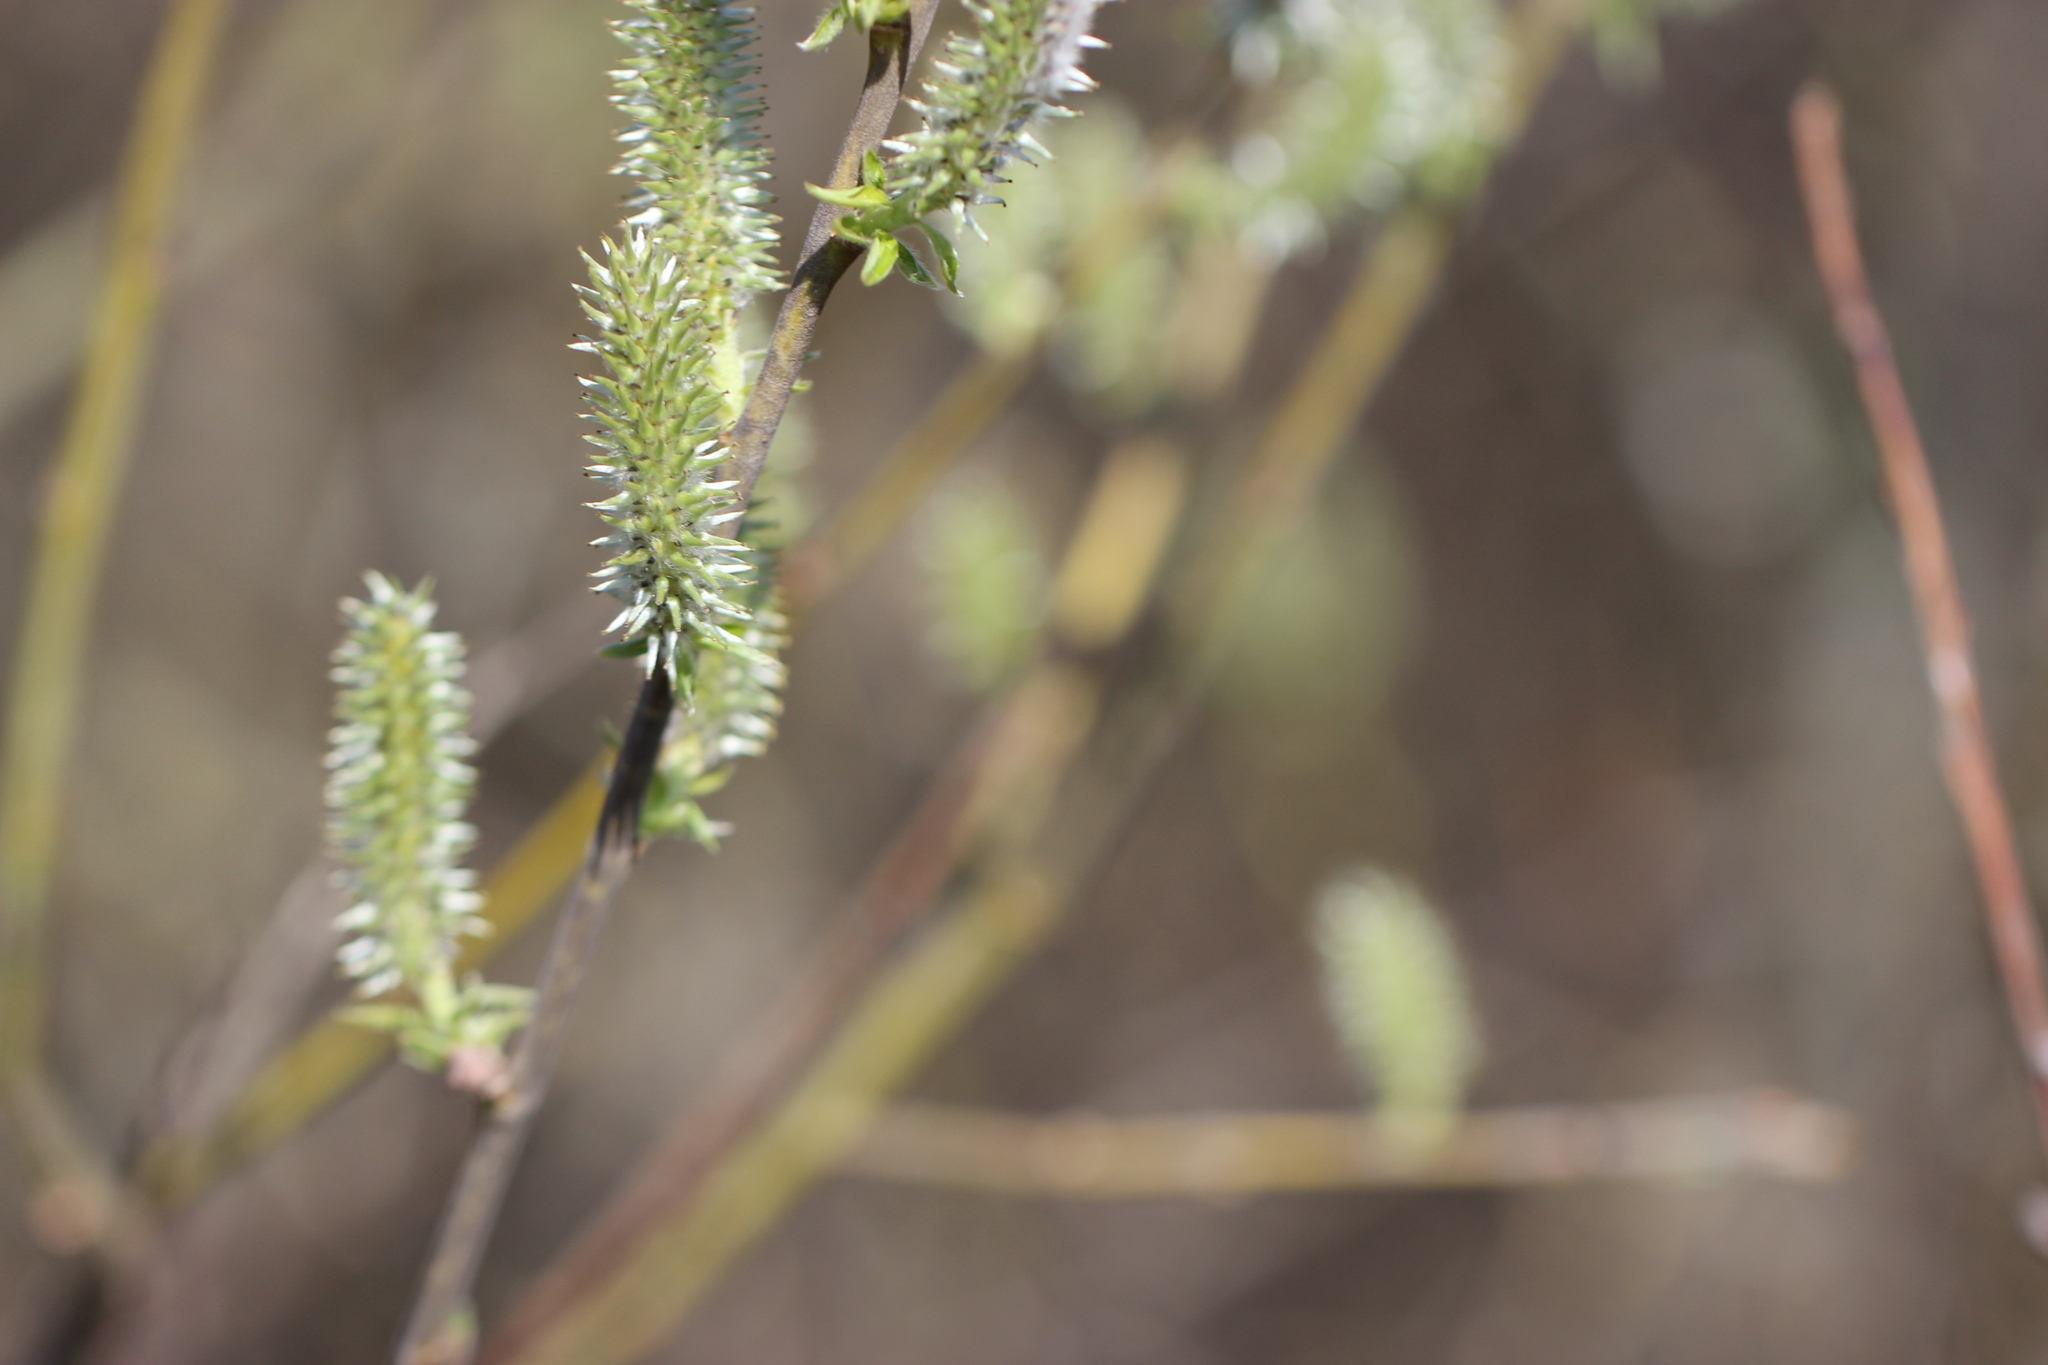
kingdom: Plantae
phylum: Tracheophyta
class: Magnoliopsida
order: Malpighiales
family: Salicaceae
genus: Salix
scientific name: Salix caprea
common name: Goat willow
